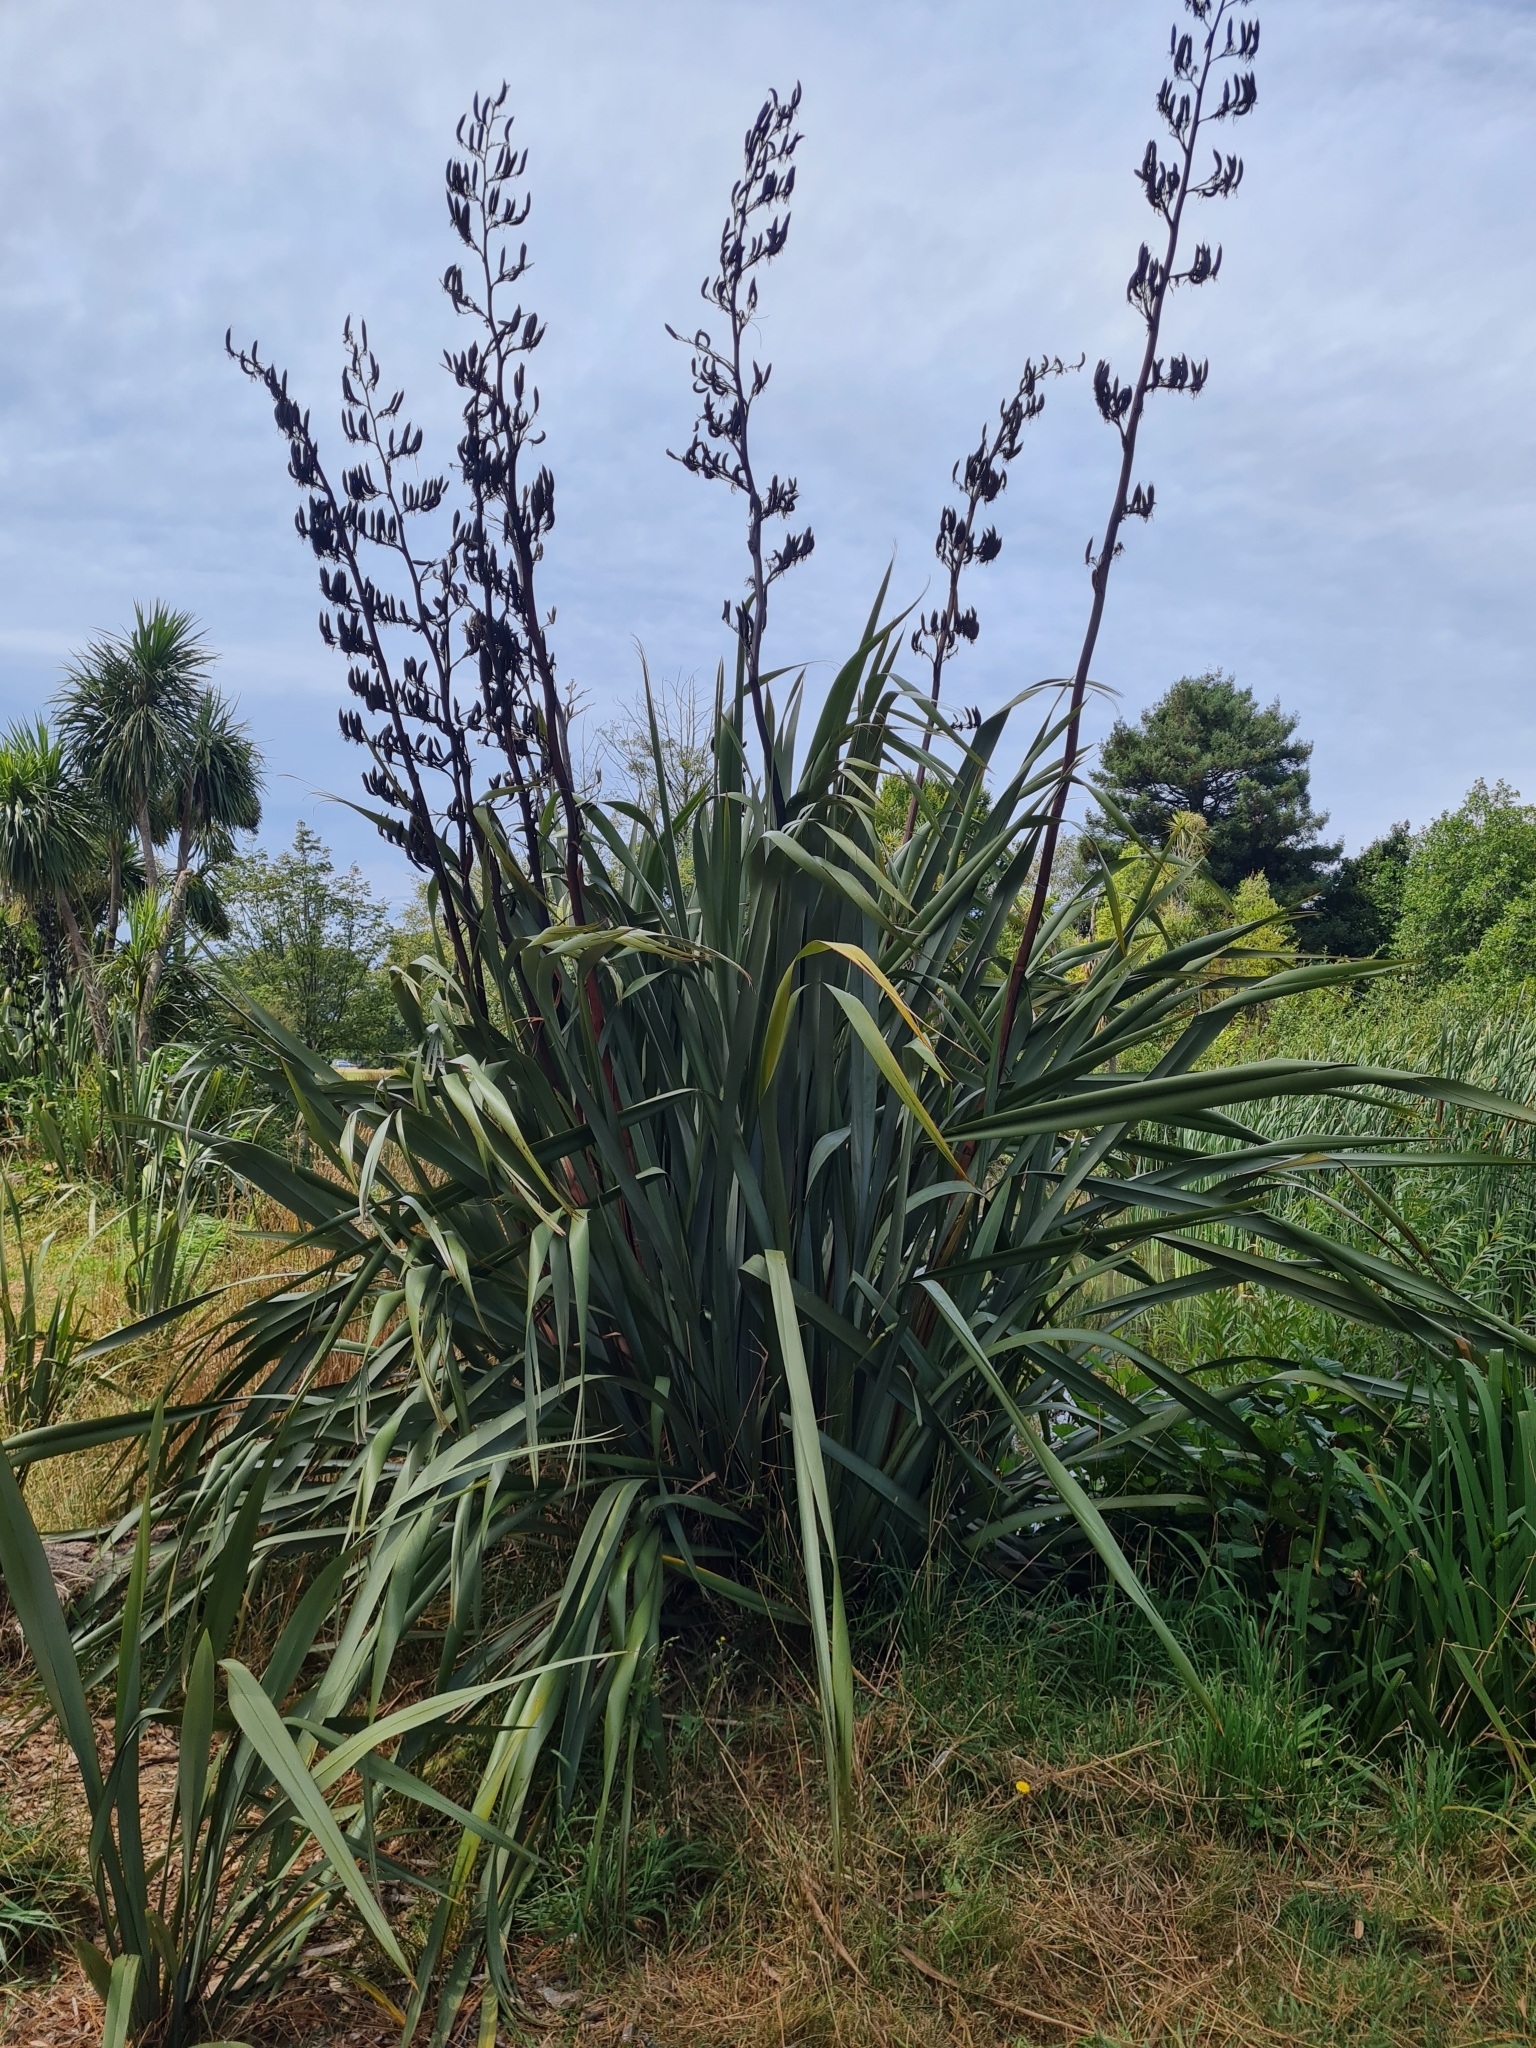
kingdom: Plantae
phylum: Tracheophyta
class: Liliopsida
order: Asparagales
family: Asphodelaceae
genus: Phormium
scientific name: Phormium tenax
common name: New zealand flax
